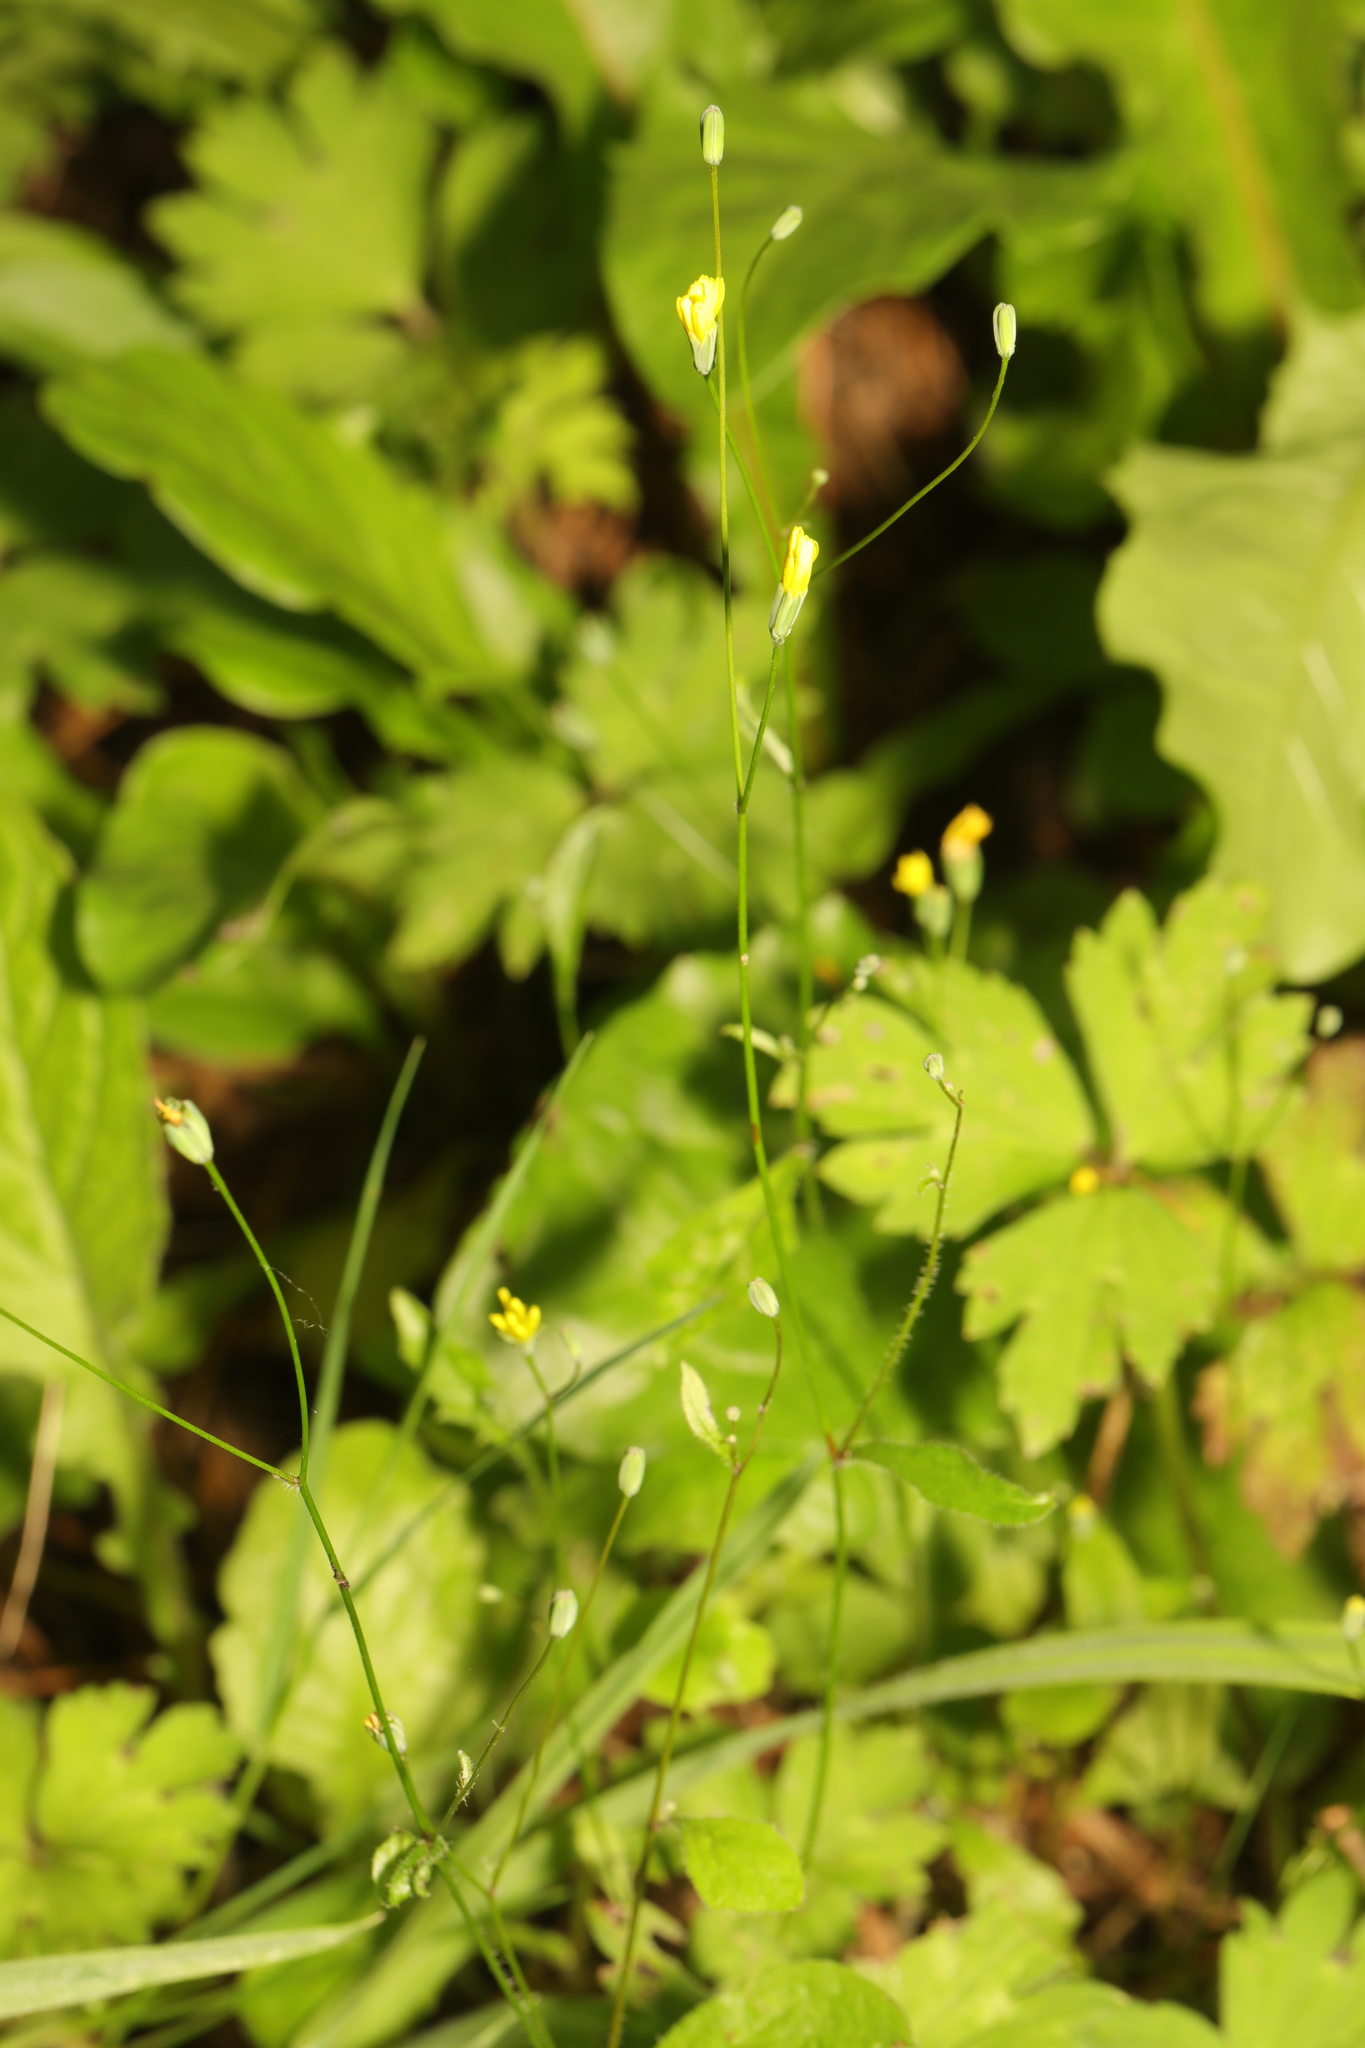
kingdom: Plantae
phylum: Tracheophyta
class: Magnoliopsida
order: Asterales
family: Asteraceae
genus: Lapsana
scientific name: Lapsana communis
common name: Nipplewort
